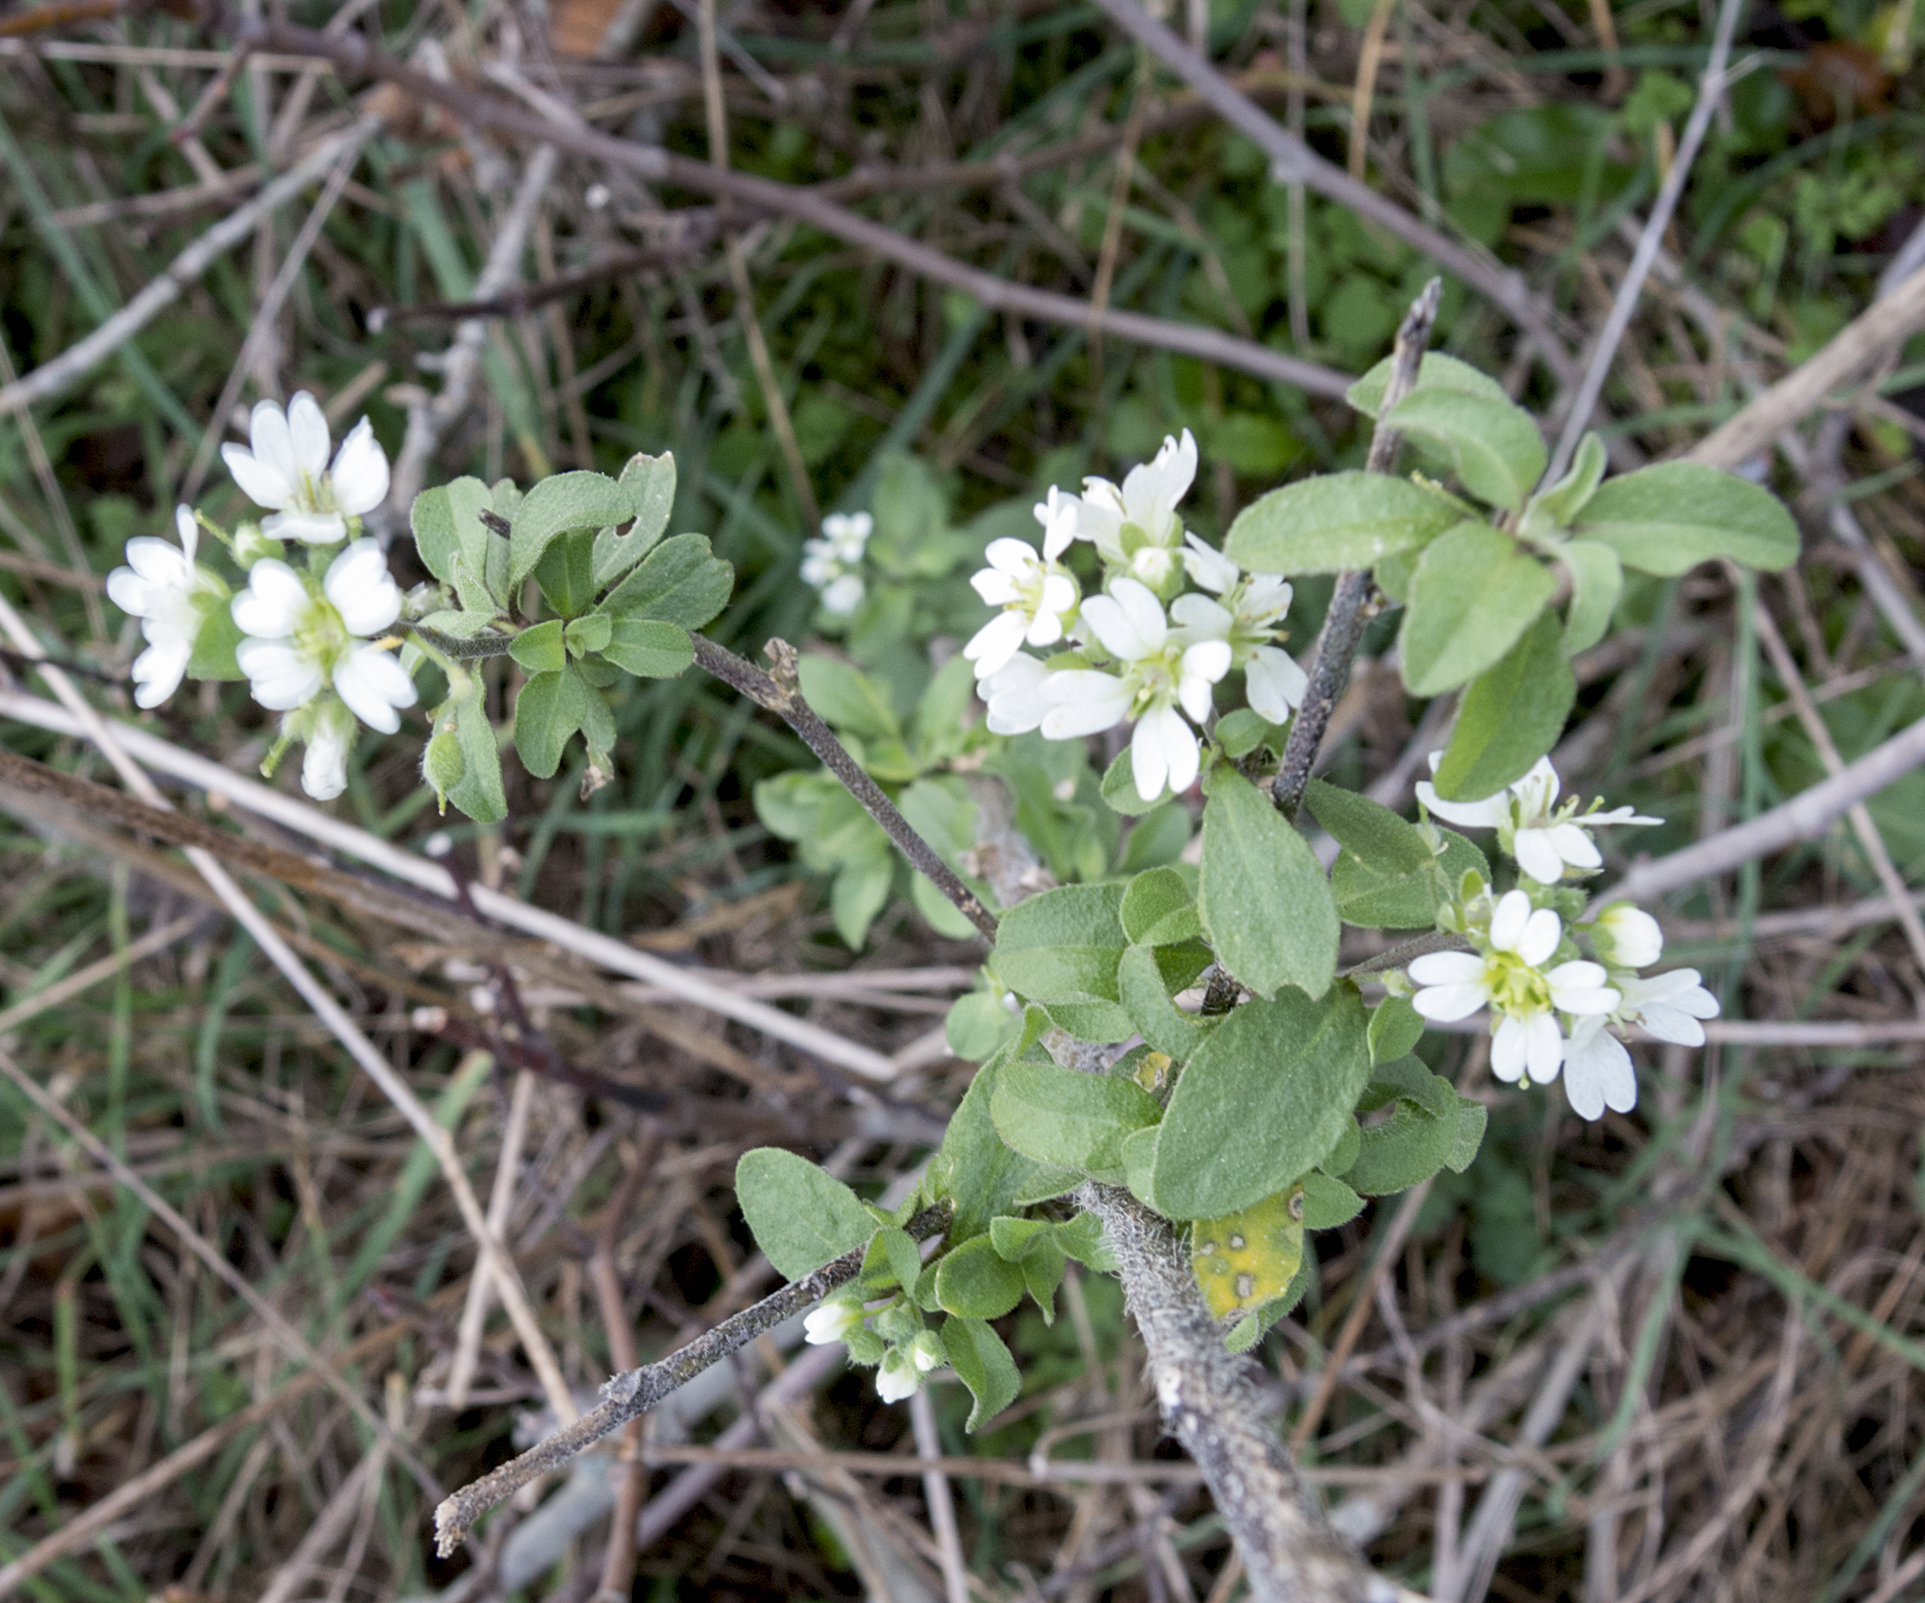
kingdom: Plantae
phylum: Tracheophyta
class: Magnoliopsida
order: Brassicales
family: Brassicaceae
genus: Berteroa
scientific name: Berteroa incana
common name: Hoary alison
